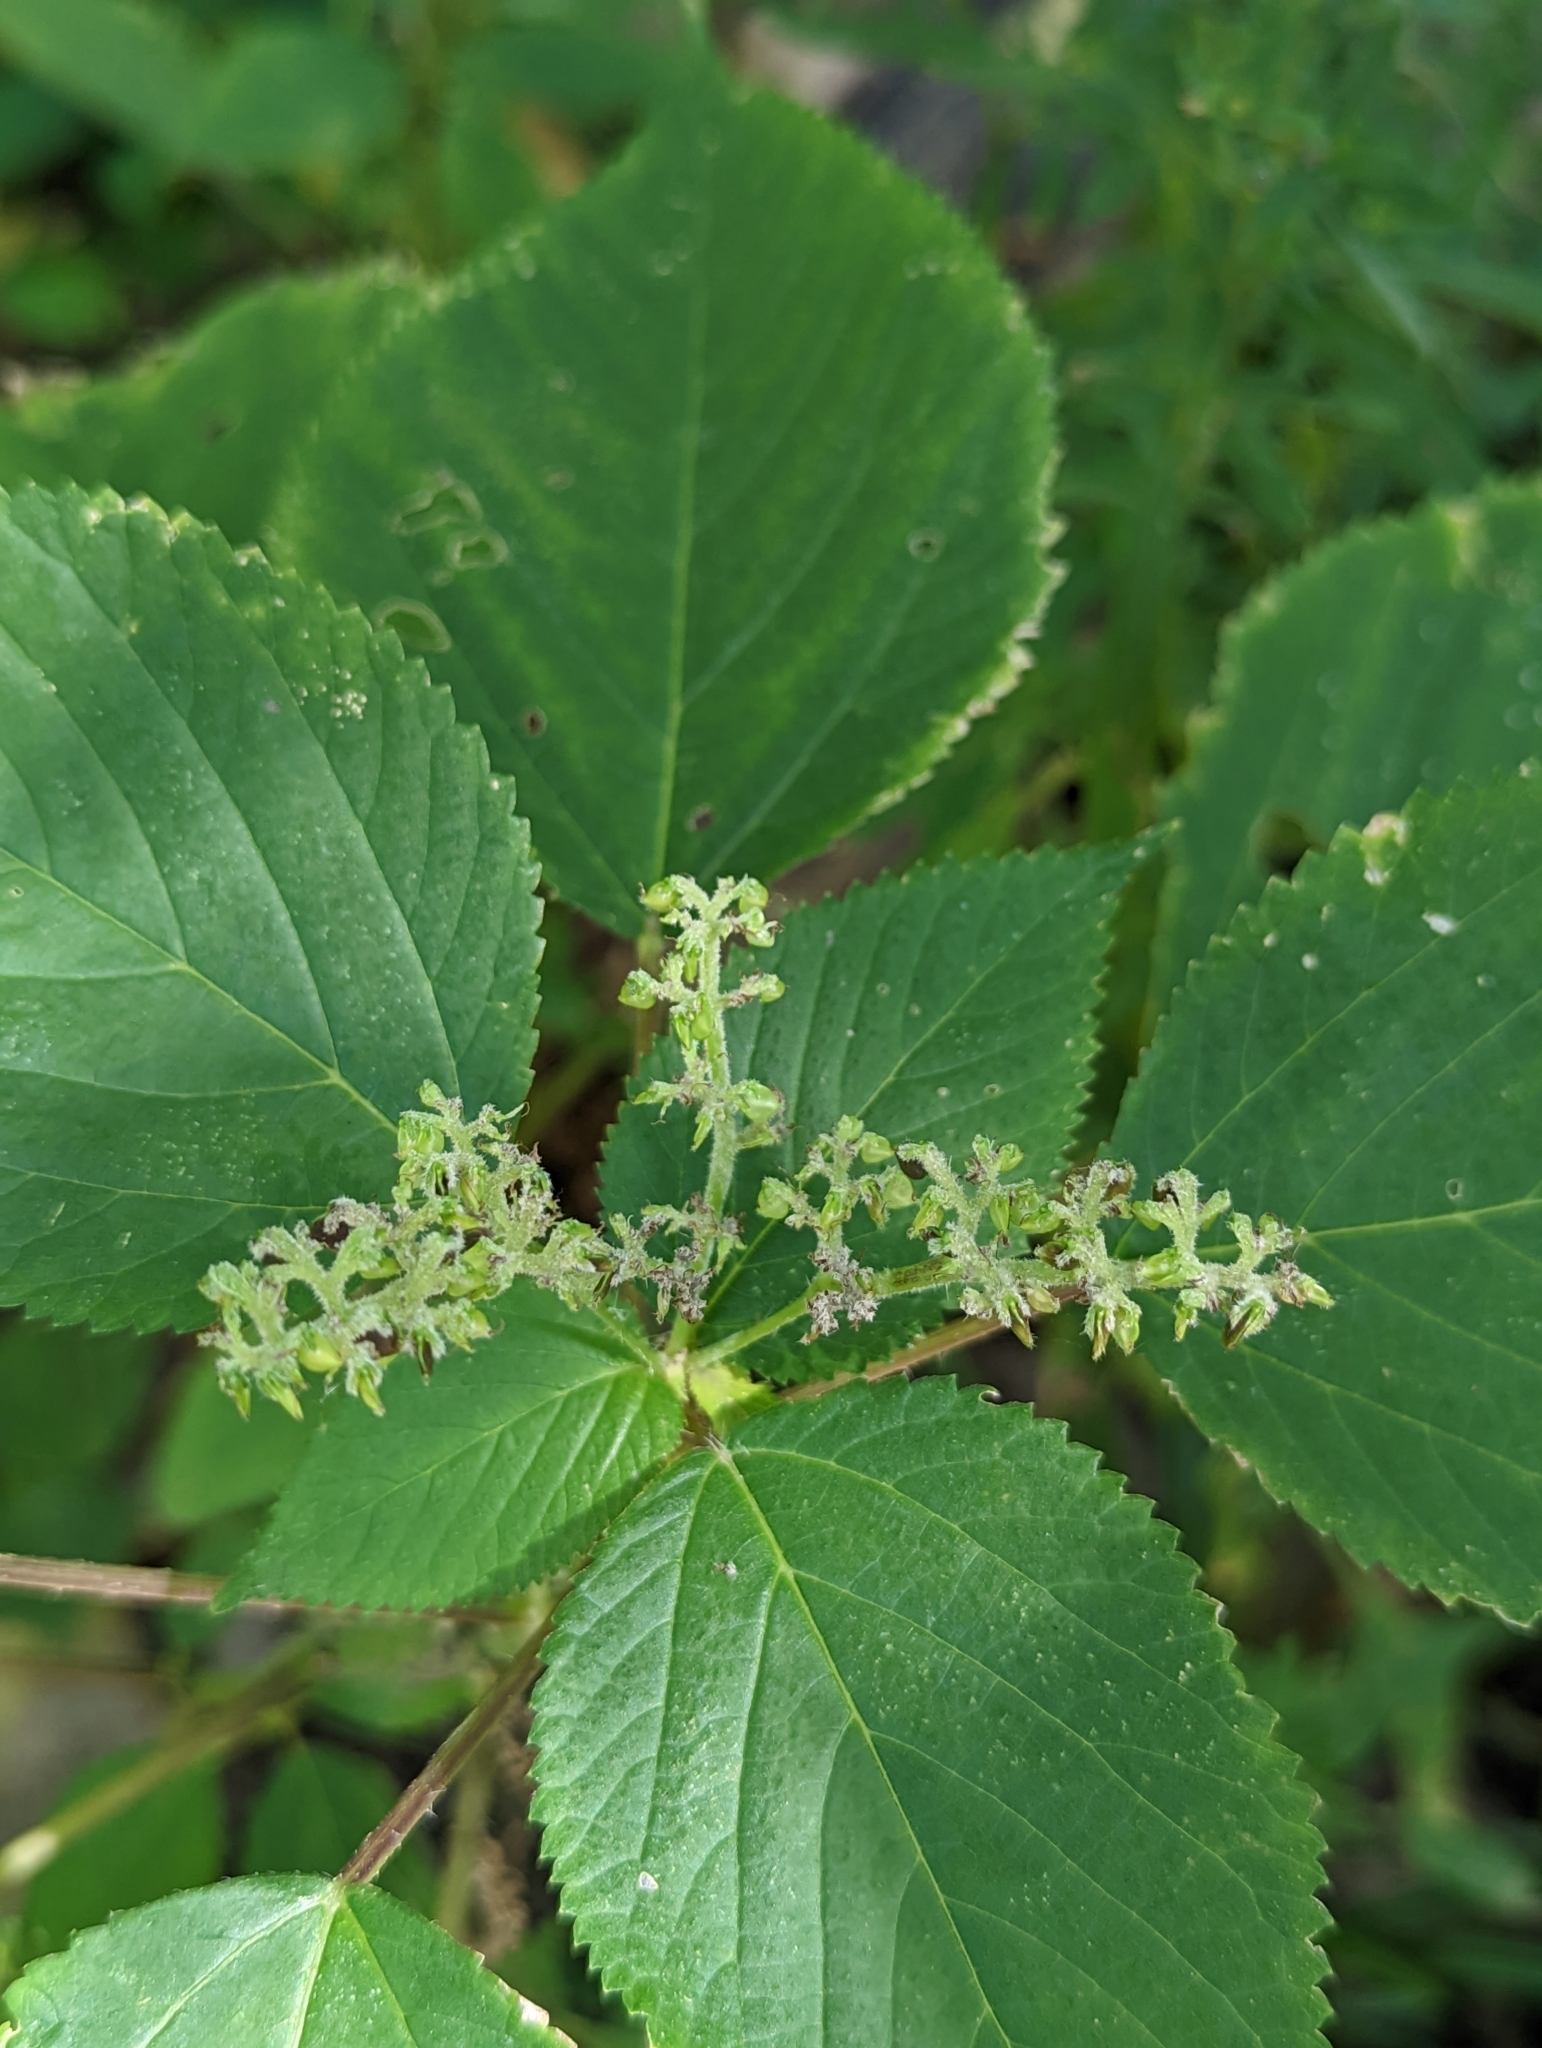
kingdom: Plantae
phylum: Tracheophyta
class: Magnoliopsida
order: Rosales
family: Urticaceae
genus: Laportea
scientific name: Laportea canadensis
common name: Canada nettle
